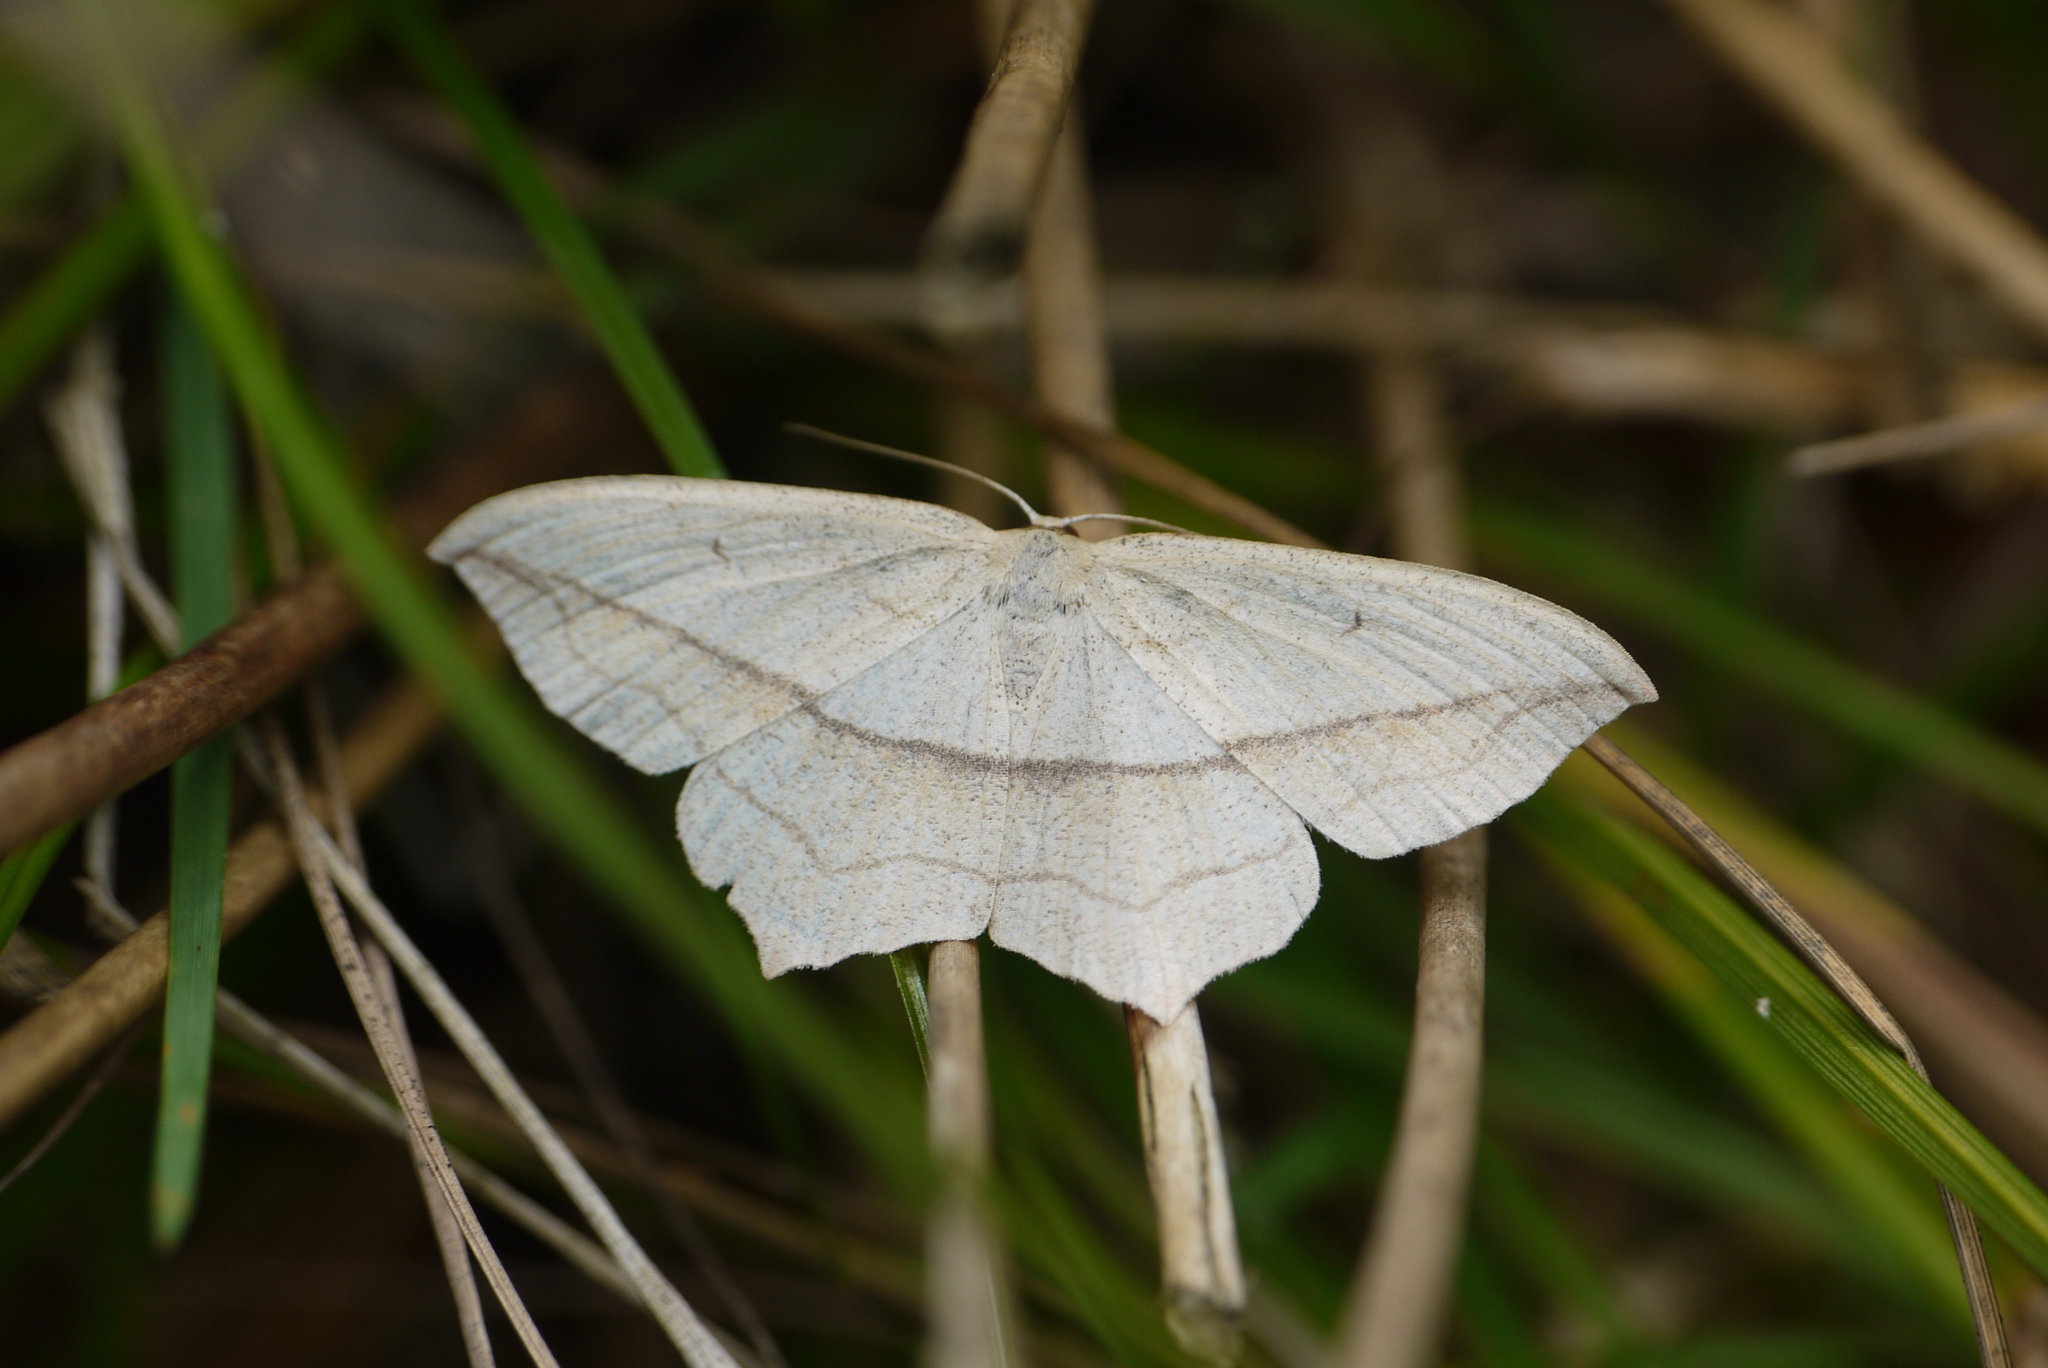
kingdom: Animalia
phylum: Arthropoda
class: Insecta
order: Lepidoptera
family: Geometridae
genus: Timandra
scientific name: Timandra comae
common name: Blood-vein
